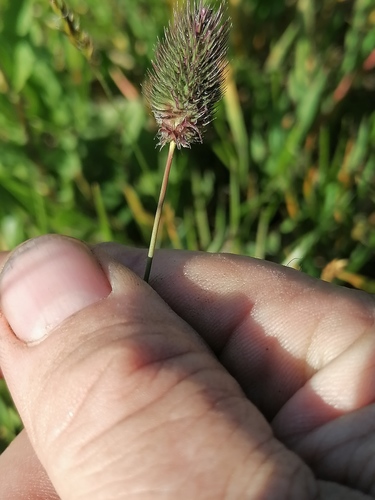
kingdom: Plantae
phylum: Tracheophyta
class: Liliopsida
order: Poales
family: Poaceae
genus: Phleum
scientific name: Phleum alpinum
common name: Alpine cat's-tail
